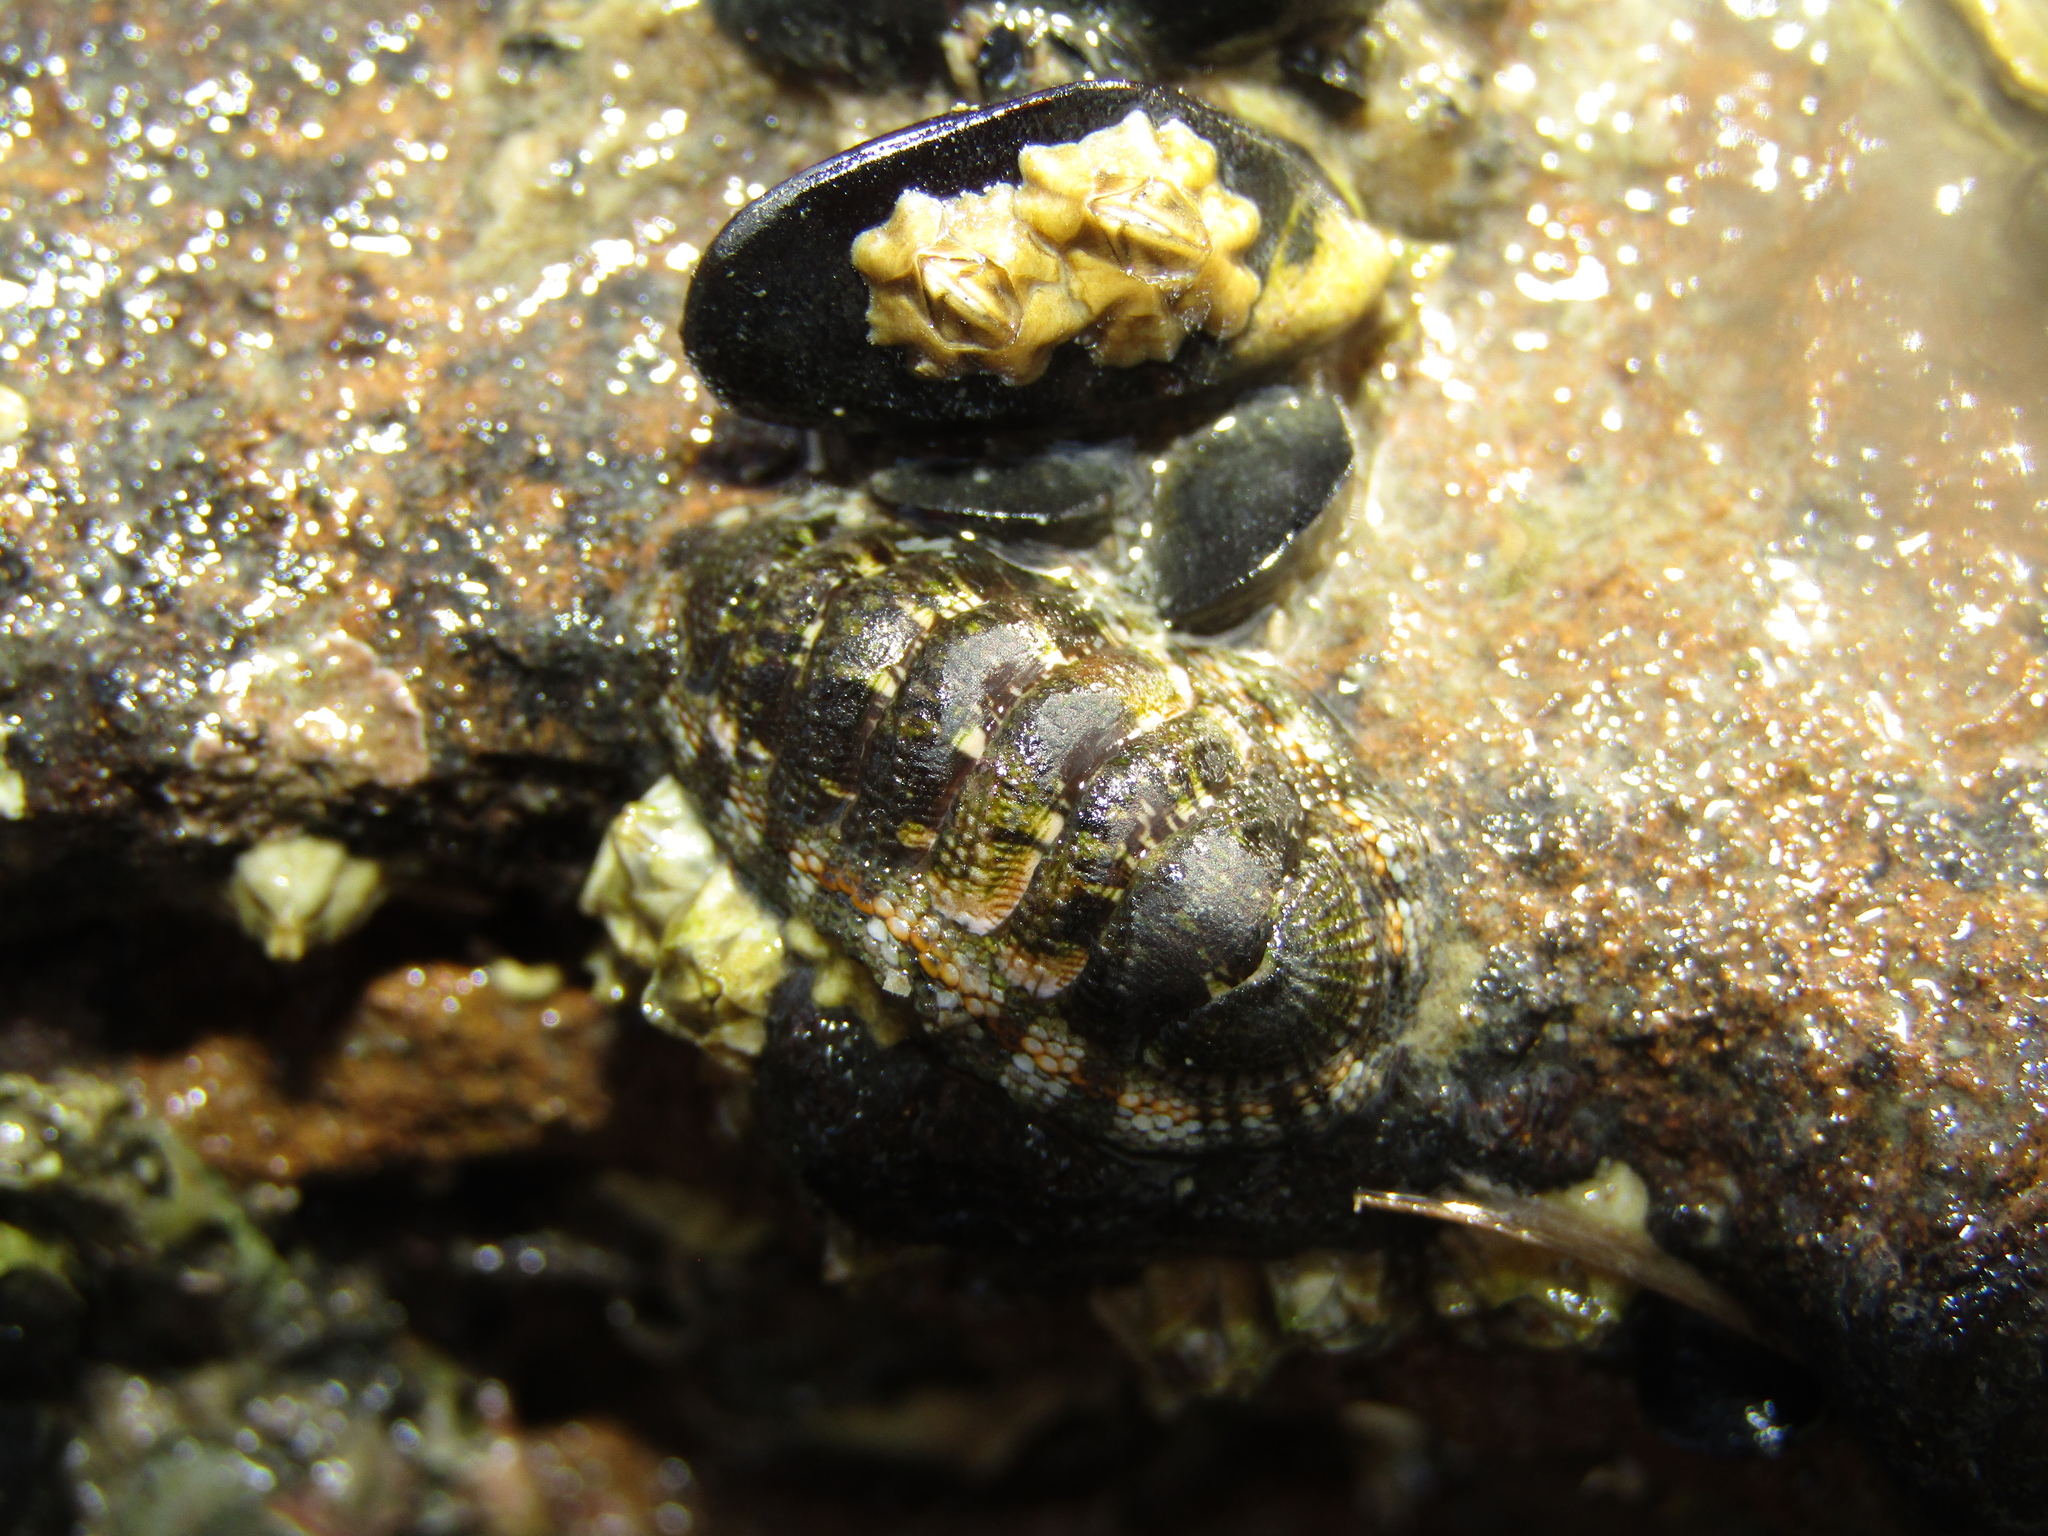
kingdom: Animalia
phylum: Mollusca
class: Polyplacophora
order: Chitonida
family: Chitonidae
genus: Sypharochiton
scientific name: Sypharochiton sinclairi
